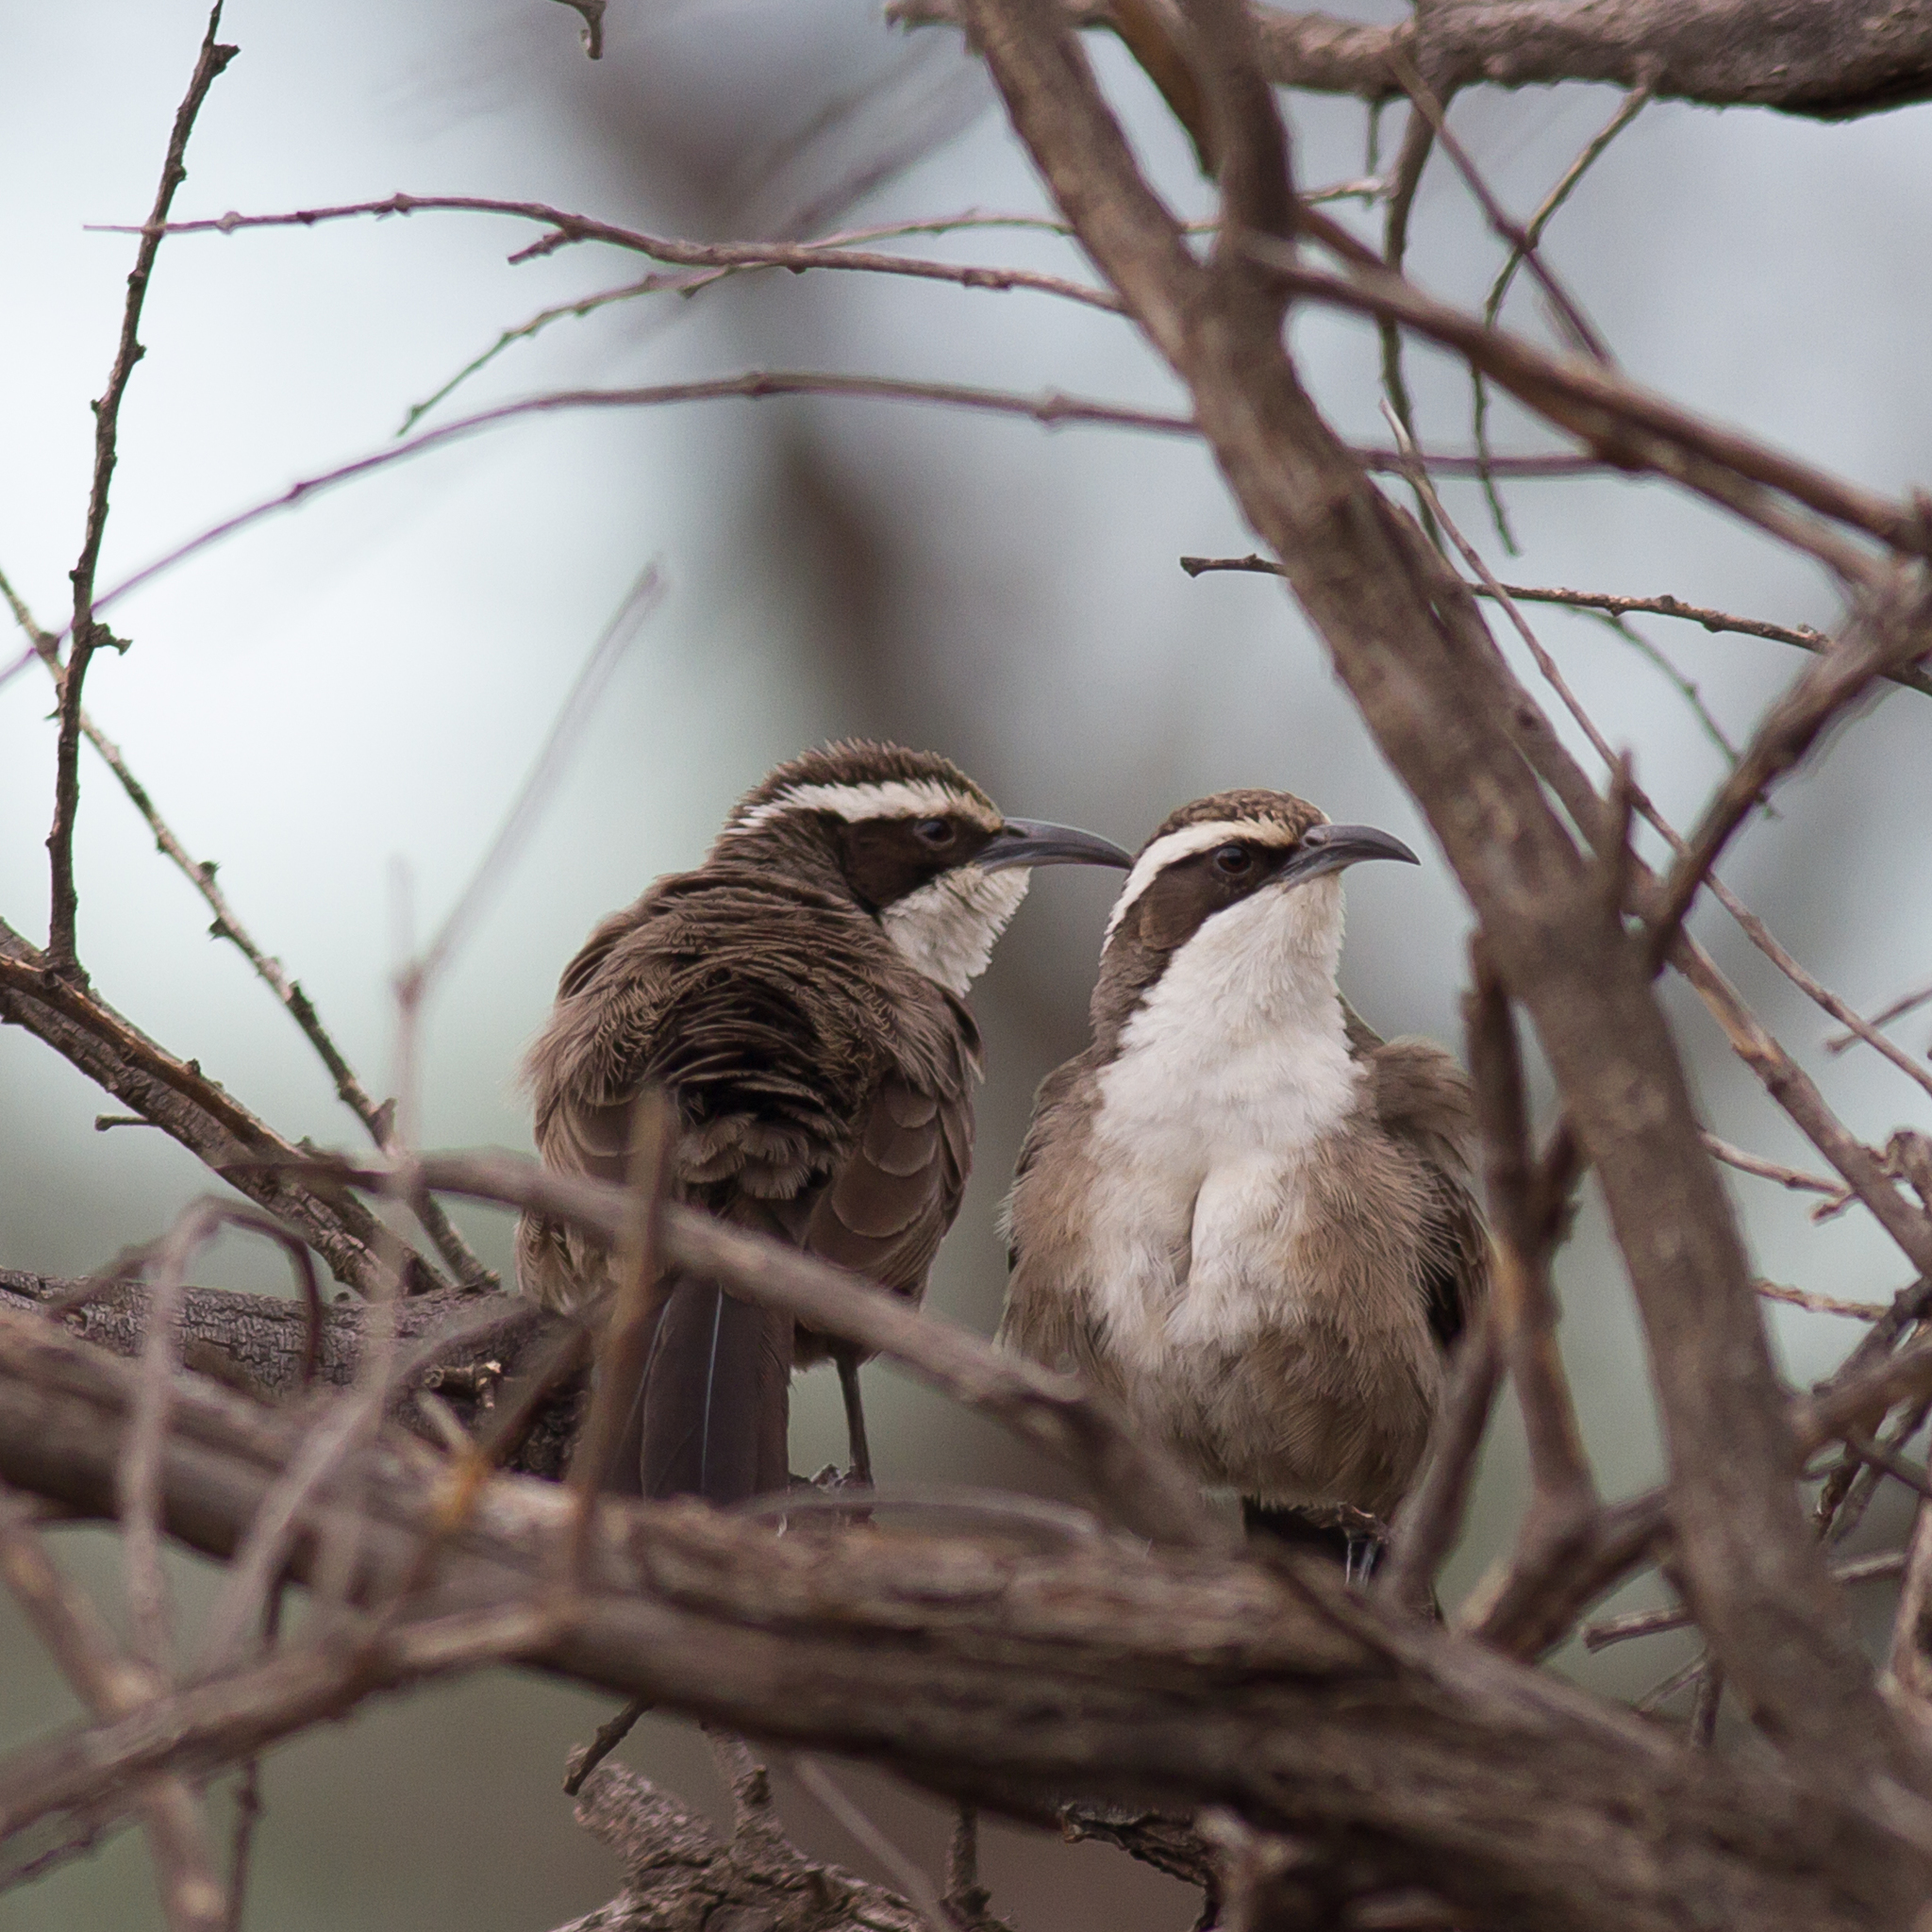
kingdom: Animalia
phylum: Chordata
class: Aves
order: Passeriformes
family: Pomatostomidae
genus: Pomatostomus
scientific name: Pomatostomus superciliosus
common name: White-browed babbler
